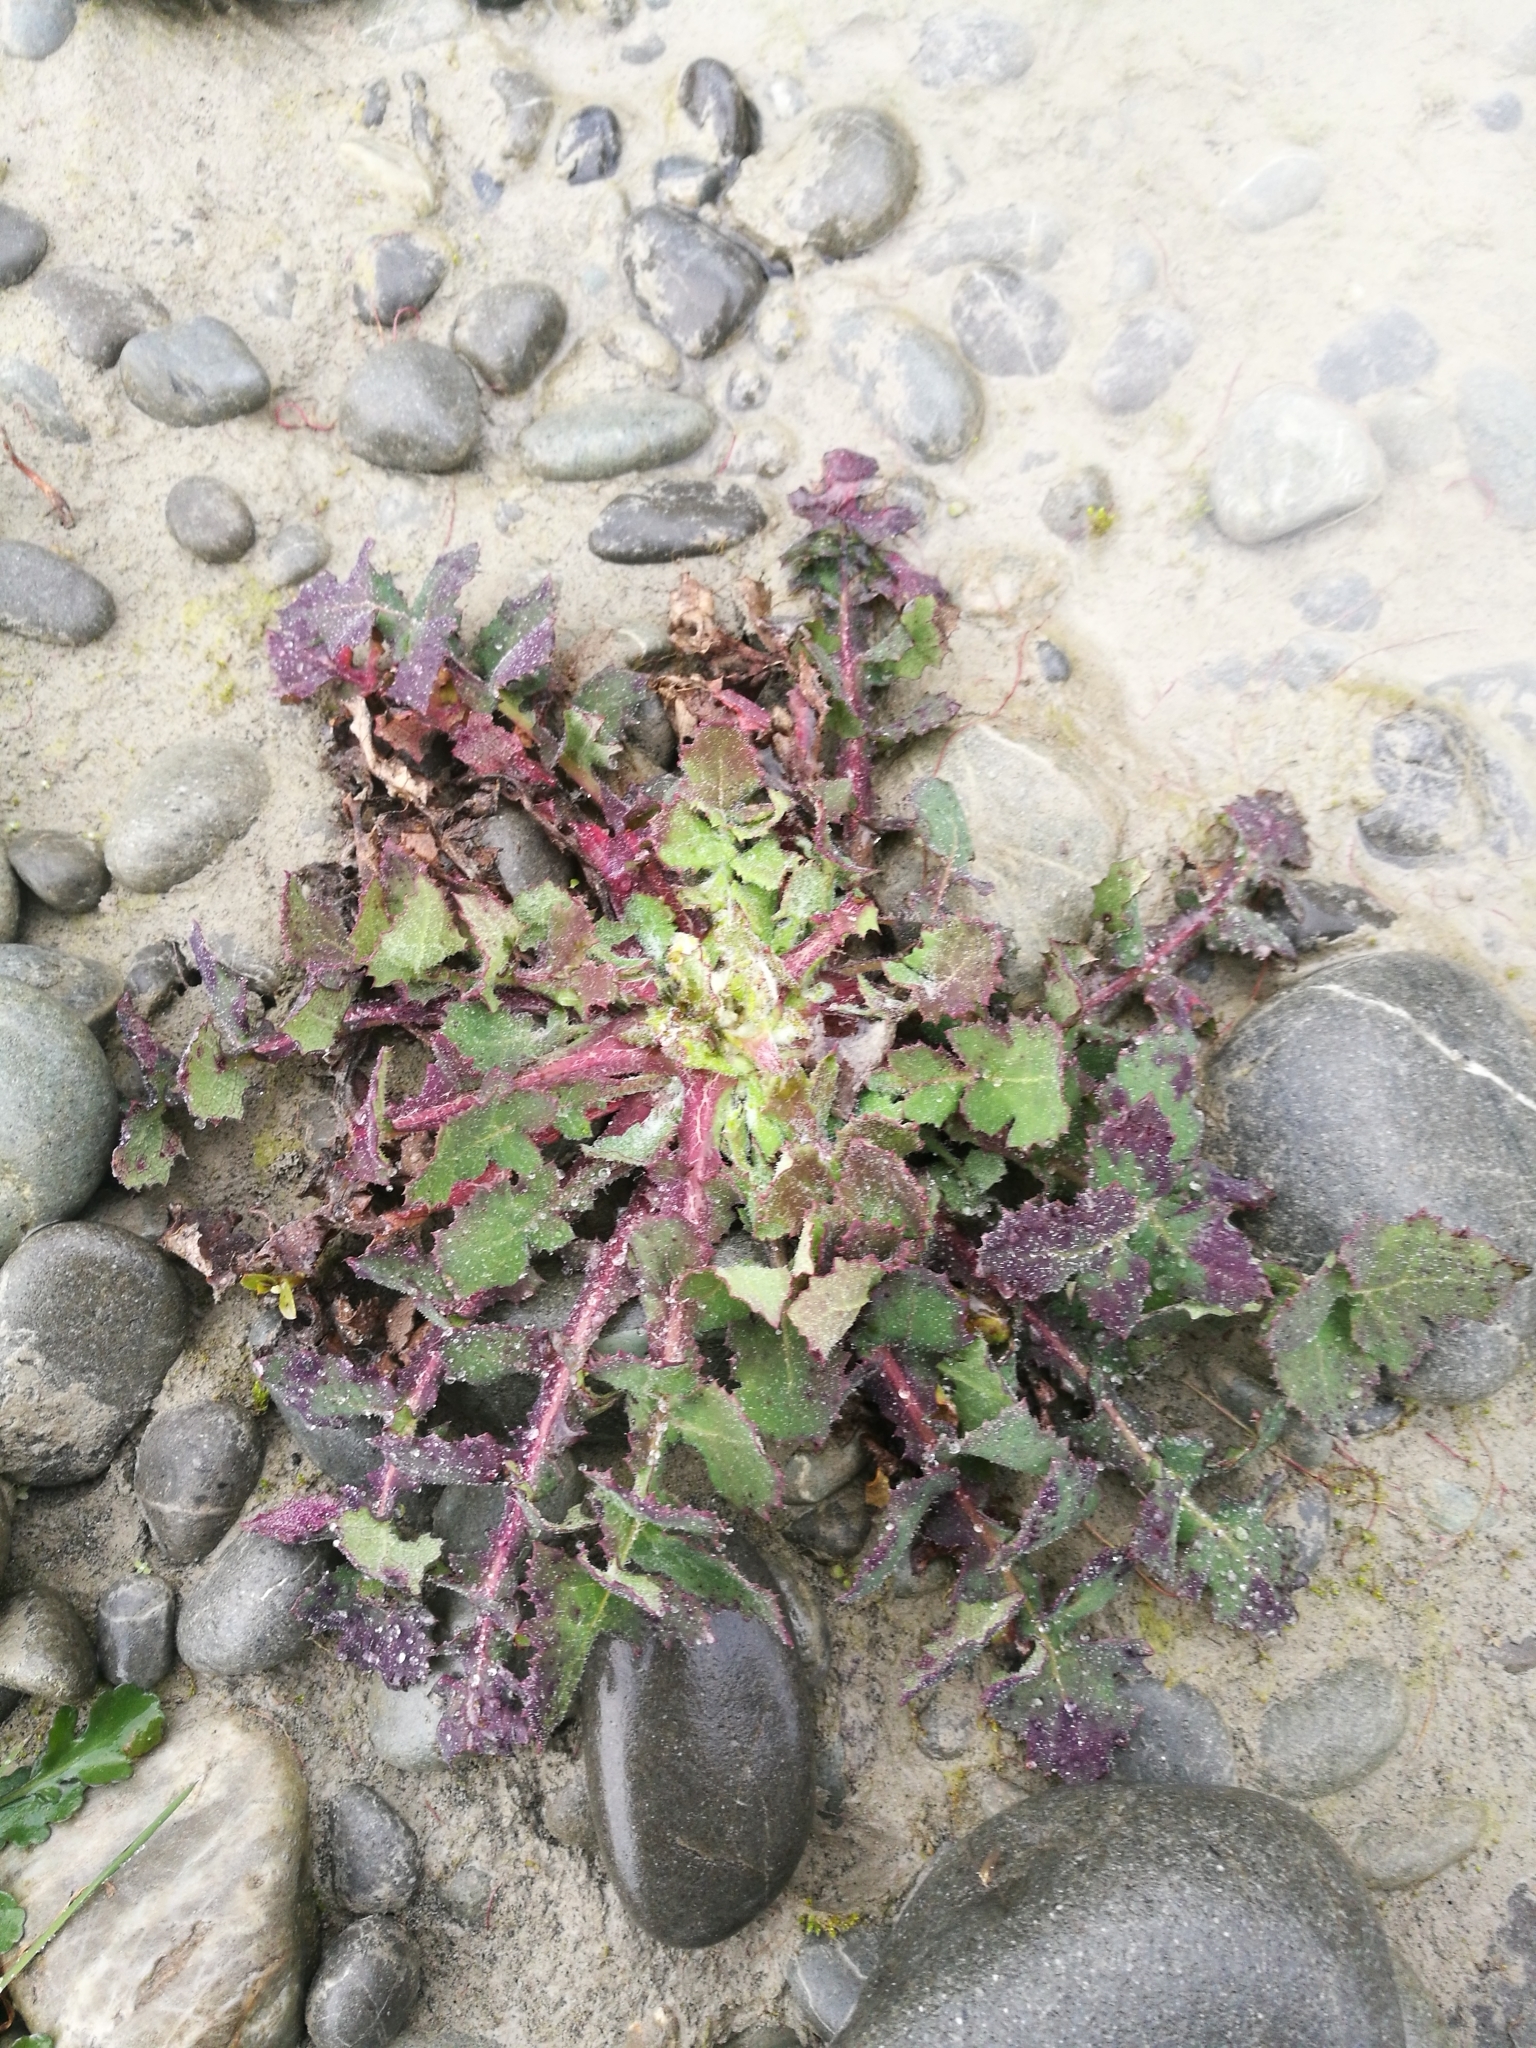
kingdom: Plantae
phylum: Tracheophyta
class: Magnoliopsida
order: Asterales
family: Asteraceae
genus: Sonchus
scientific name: Sonchus oleraceus
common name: Common sowthistle
